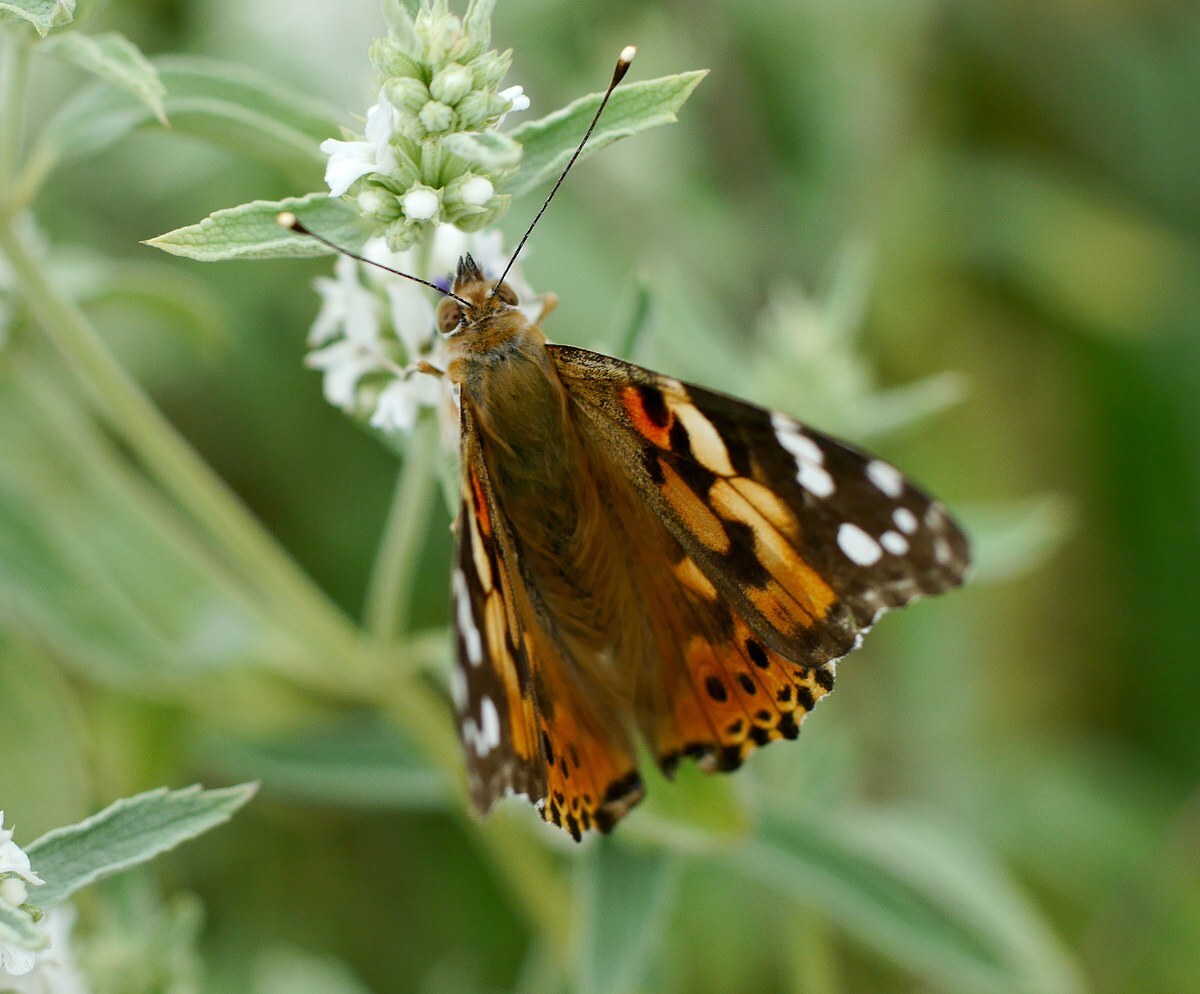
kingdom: Animalia
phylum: Arthropoda
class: Insecta
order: Lepidoptera
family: Nymphalidae
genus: Vanessa
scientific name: Vanessa cardui
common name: Painted lady
